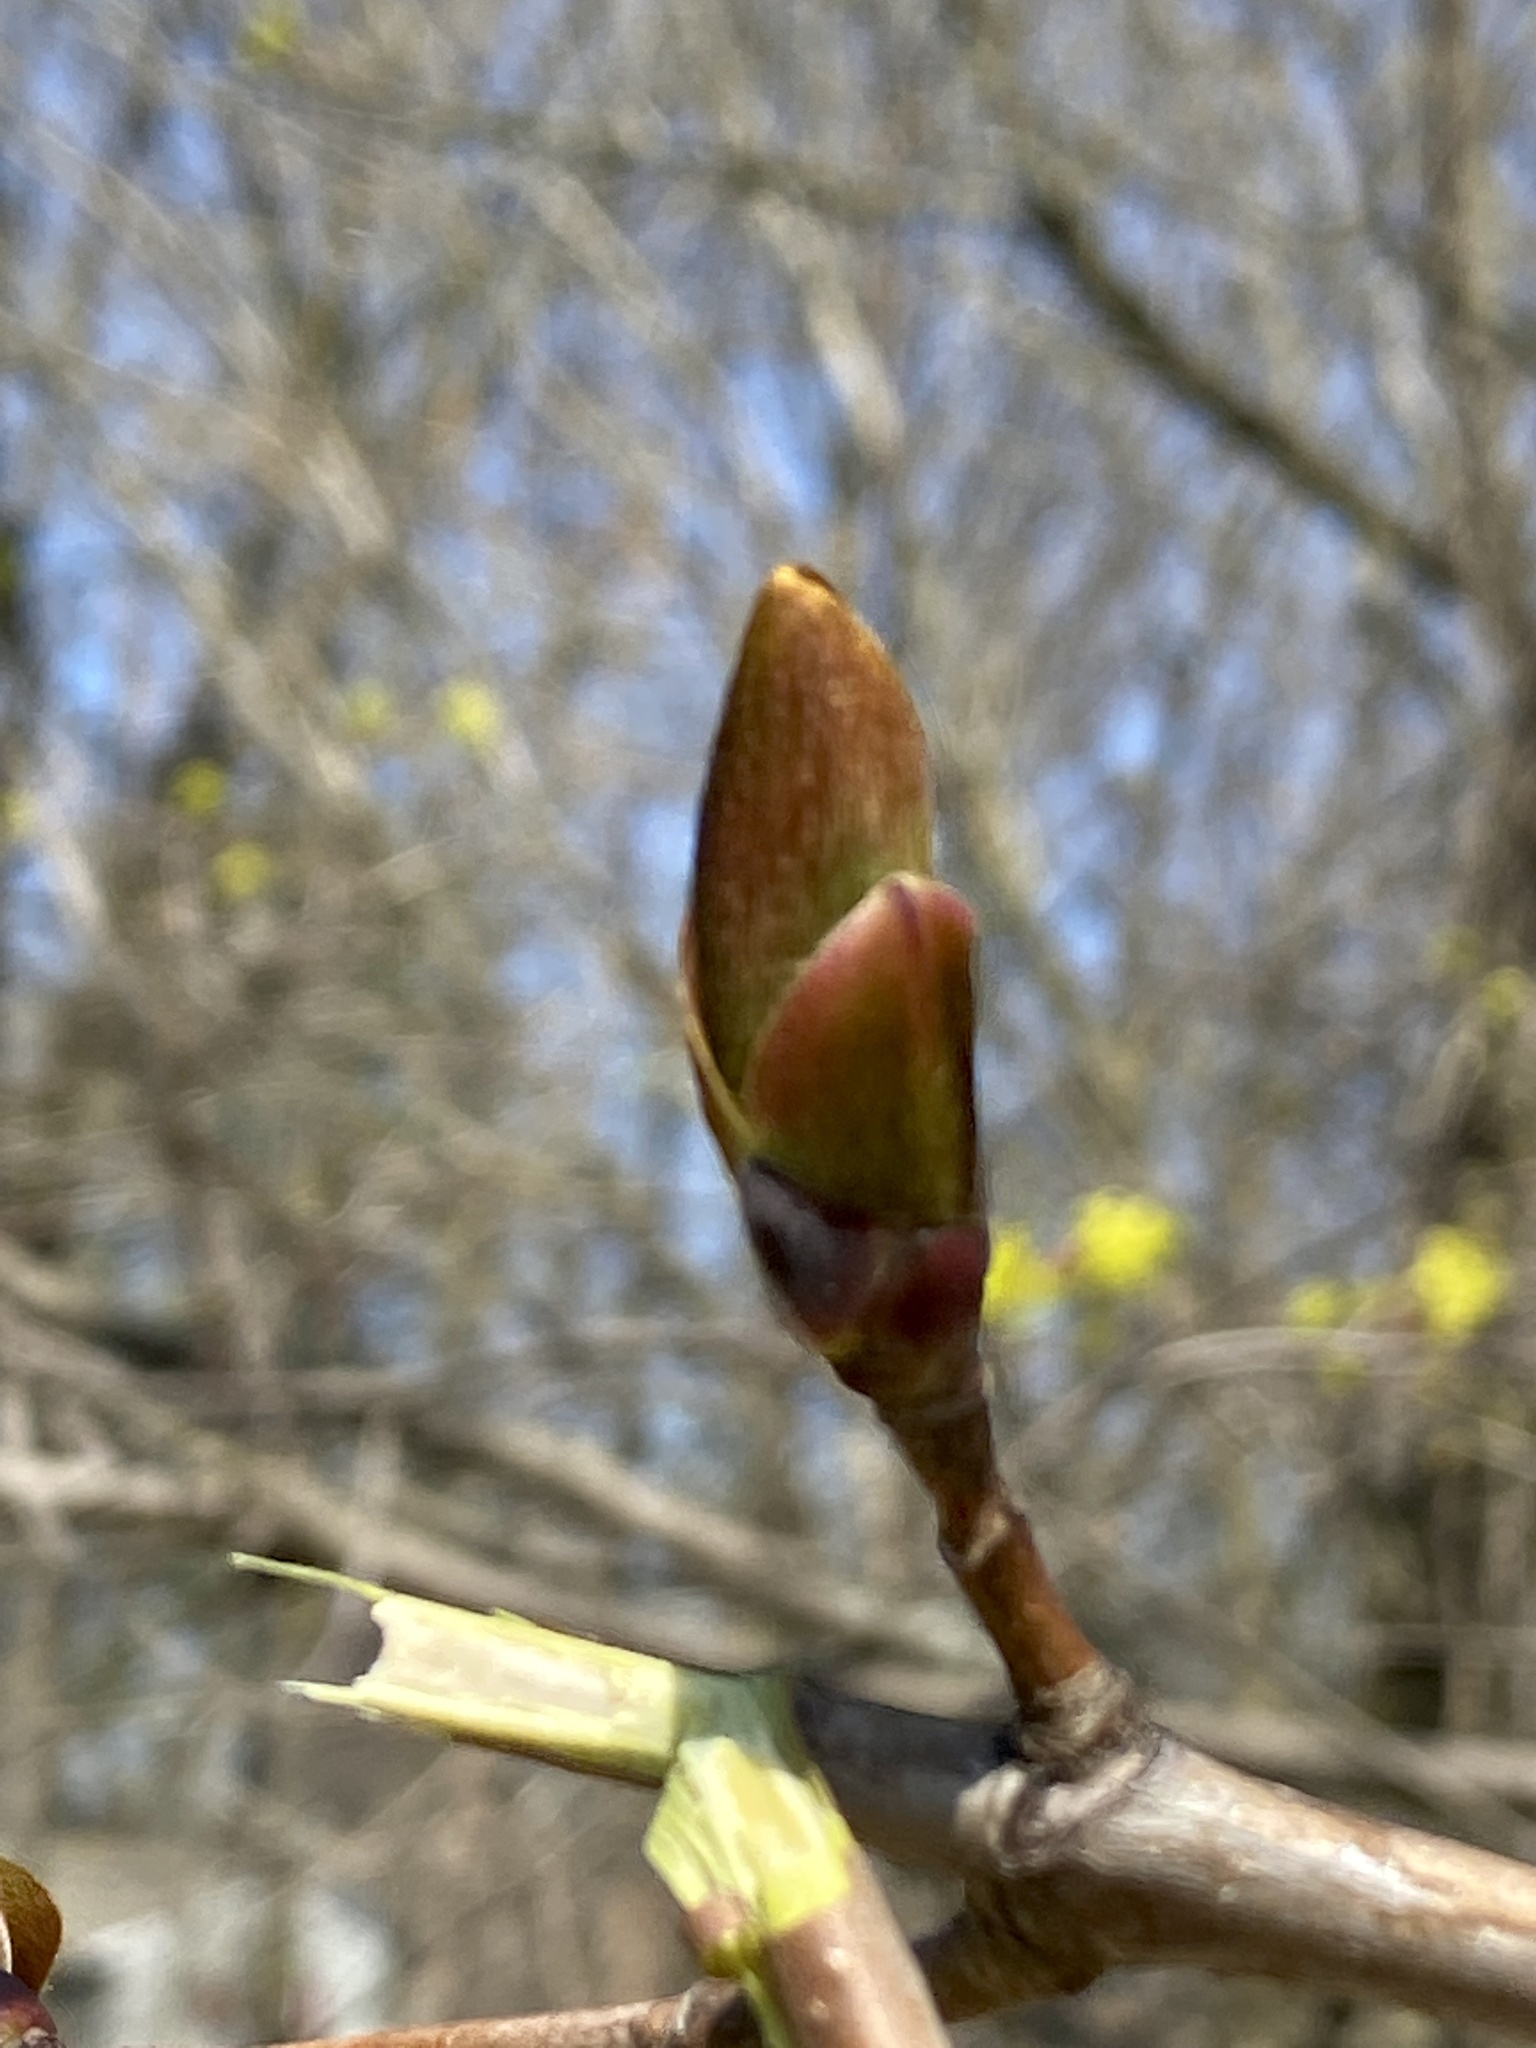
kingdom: Plantae
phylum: Tracheophyta
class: Magnoliopsida
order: Sapindales
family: Sapindaceae
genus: Acer
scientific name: Acer platanoides
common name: Norway maple
